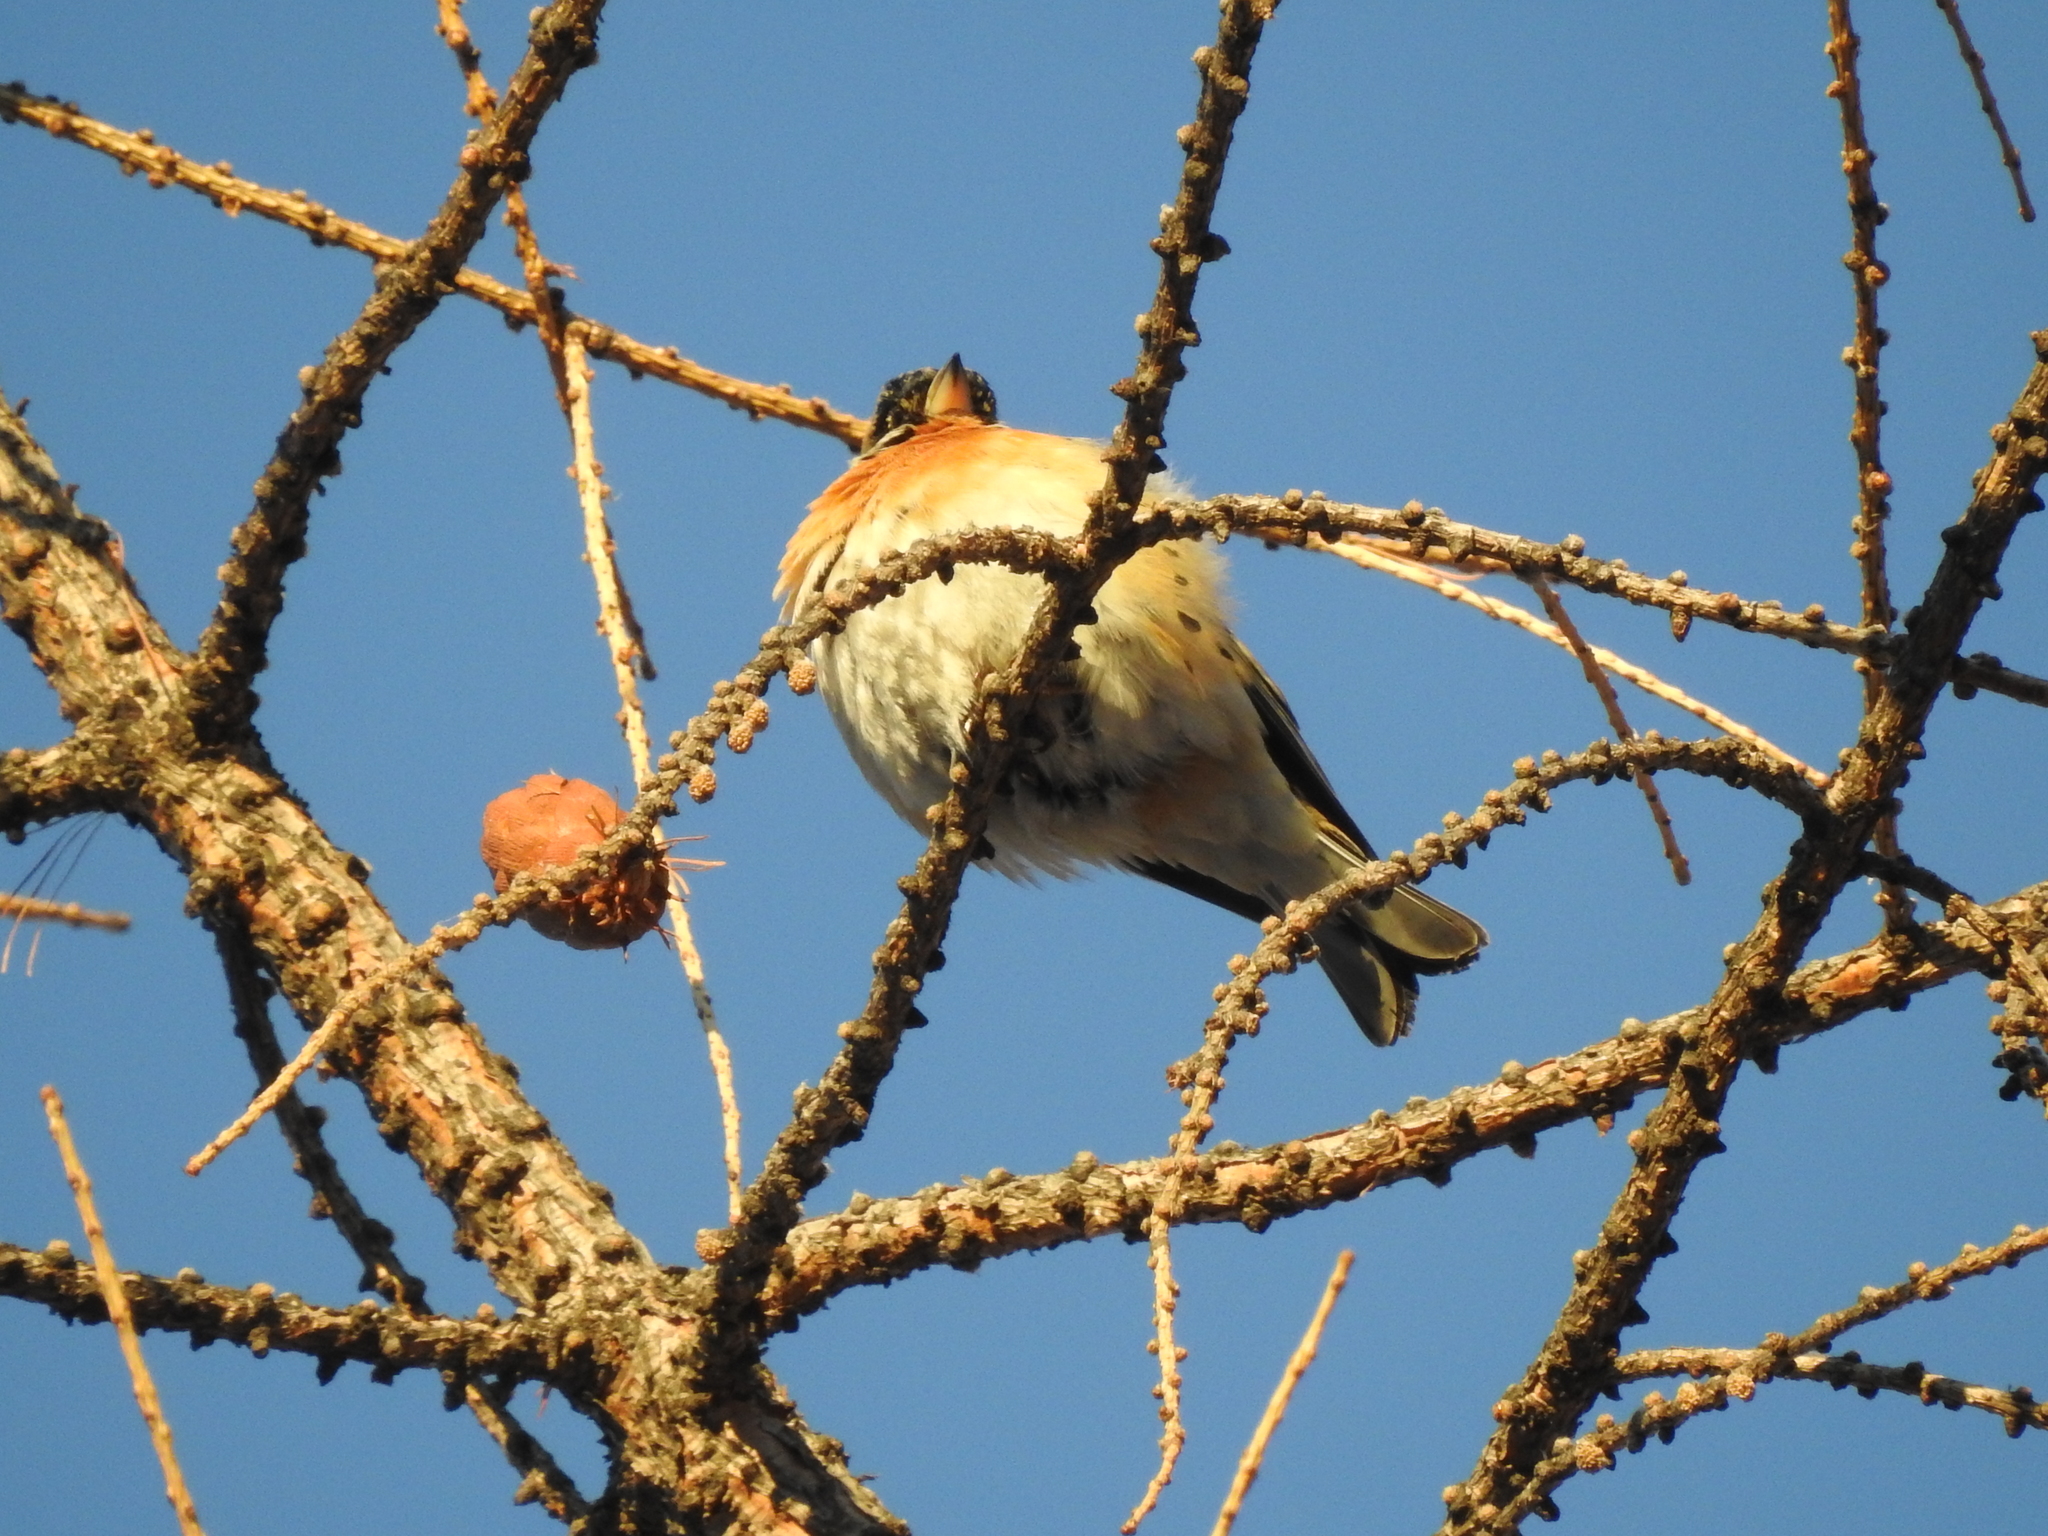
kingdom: Animalia
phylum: Chordata
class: Aves
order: Passeriformes
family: Fringillidae
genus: Fringilla
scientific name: Fringilla montifringilla
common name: Brambling
